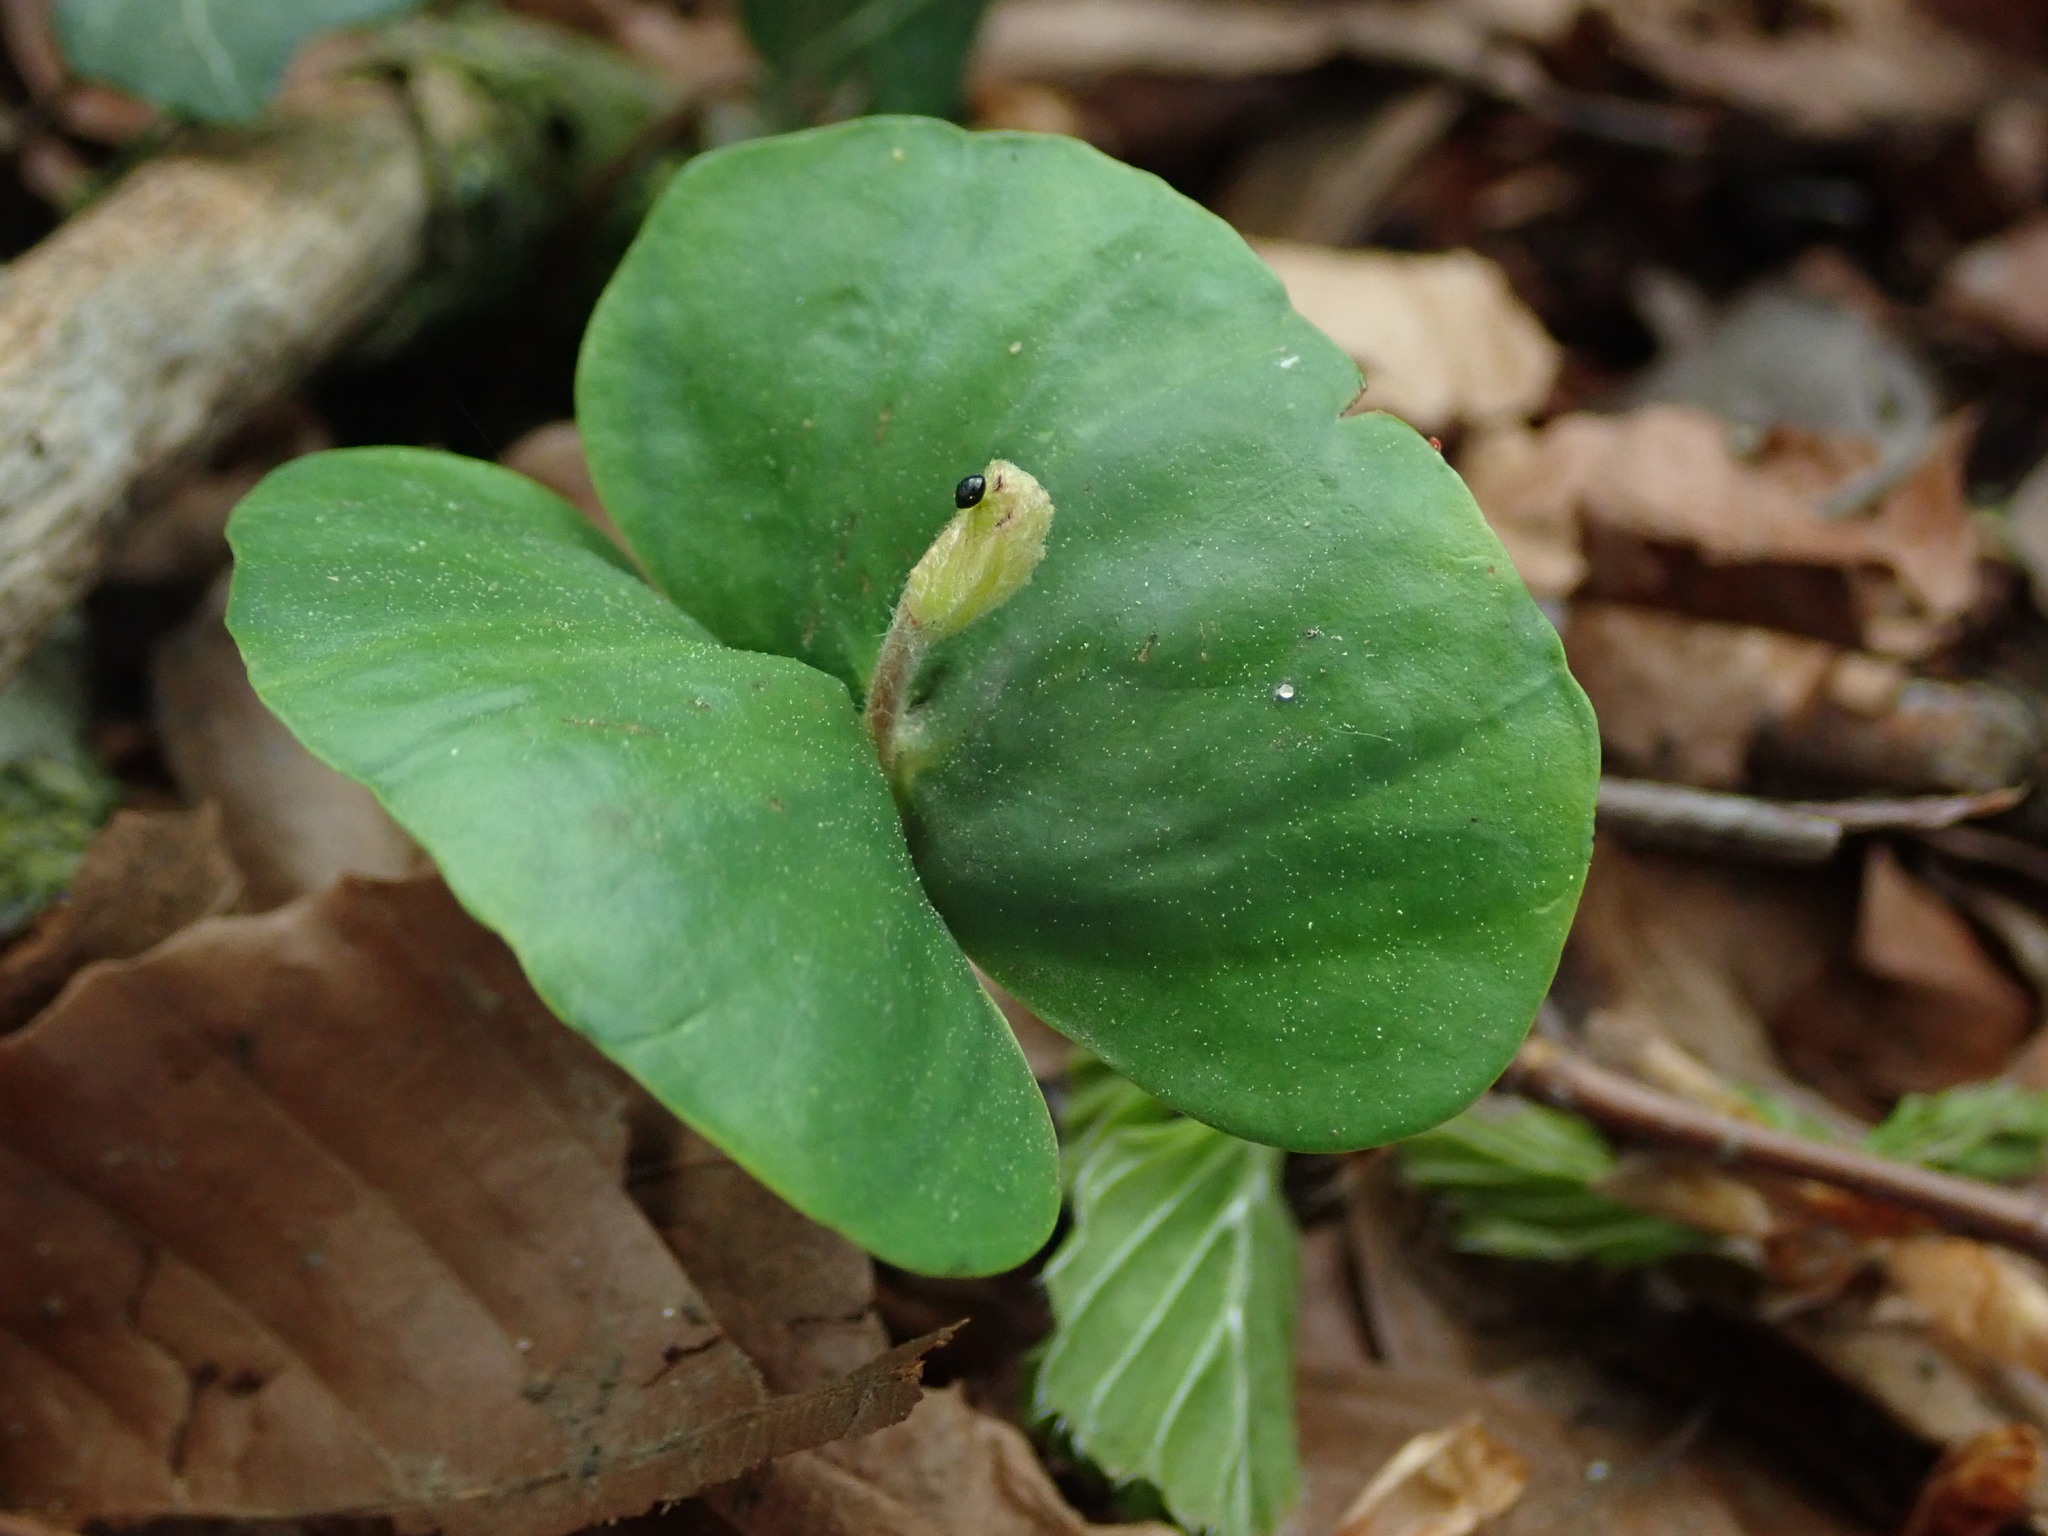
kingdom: Plantae
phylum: Tracheophyta
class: Magnoliopsida
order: Fagales
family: Fagaceae
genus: Fagus
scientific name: Fagus sylvatica
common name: Beech
